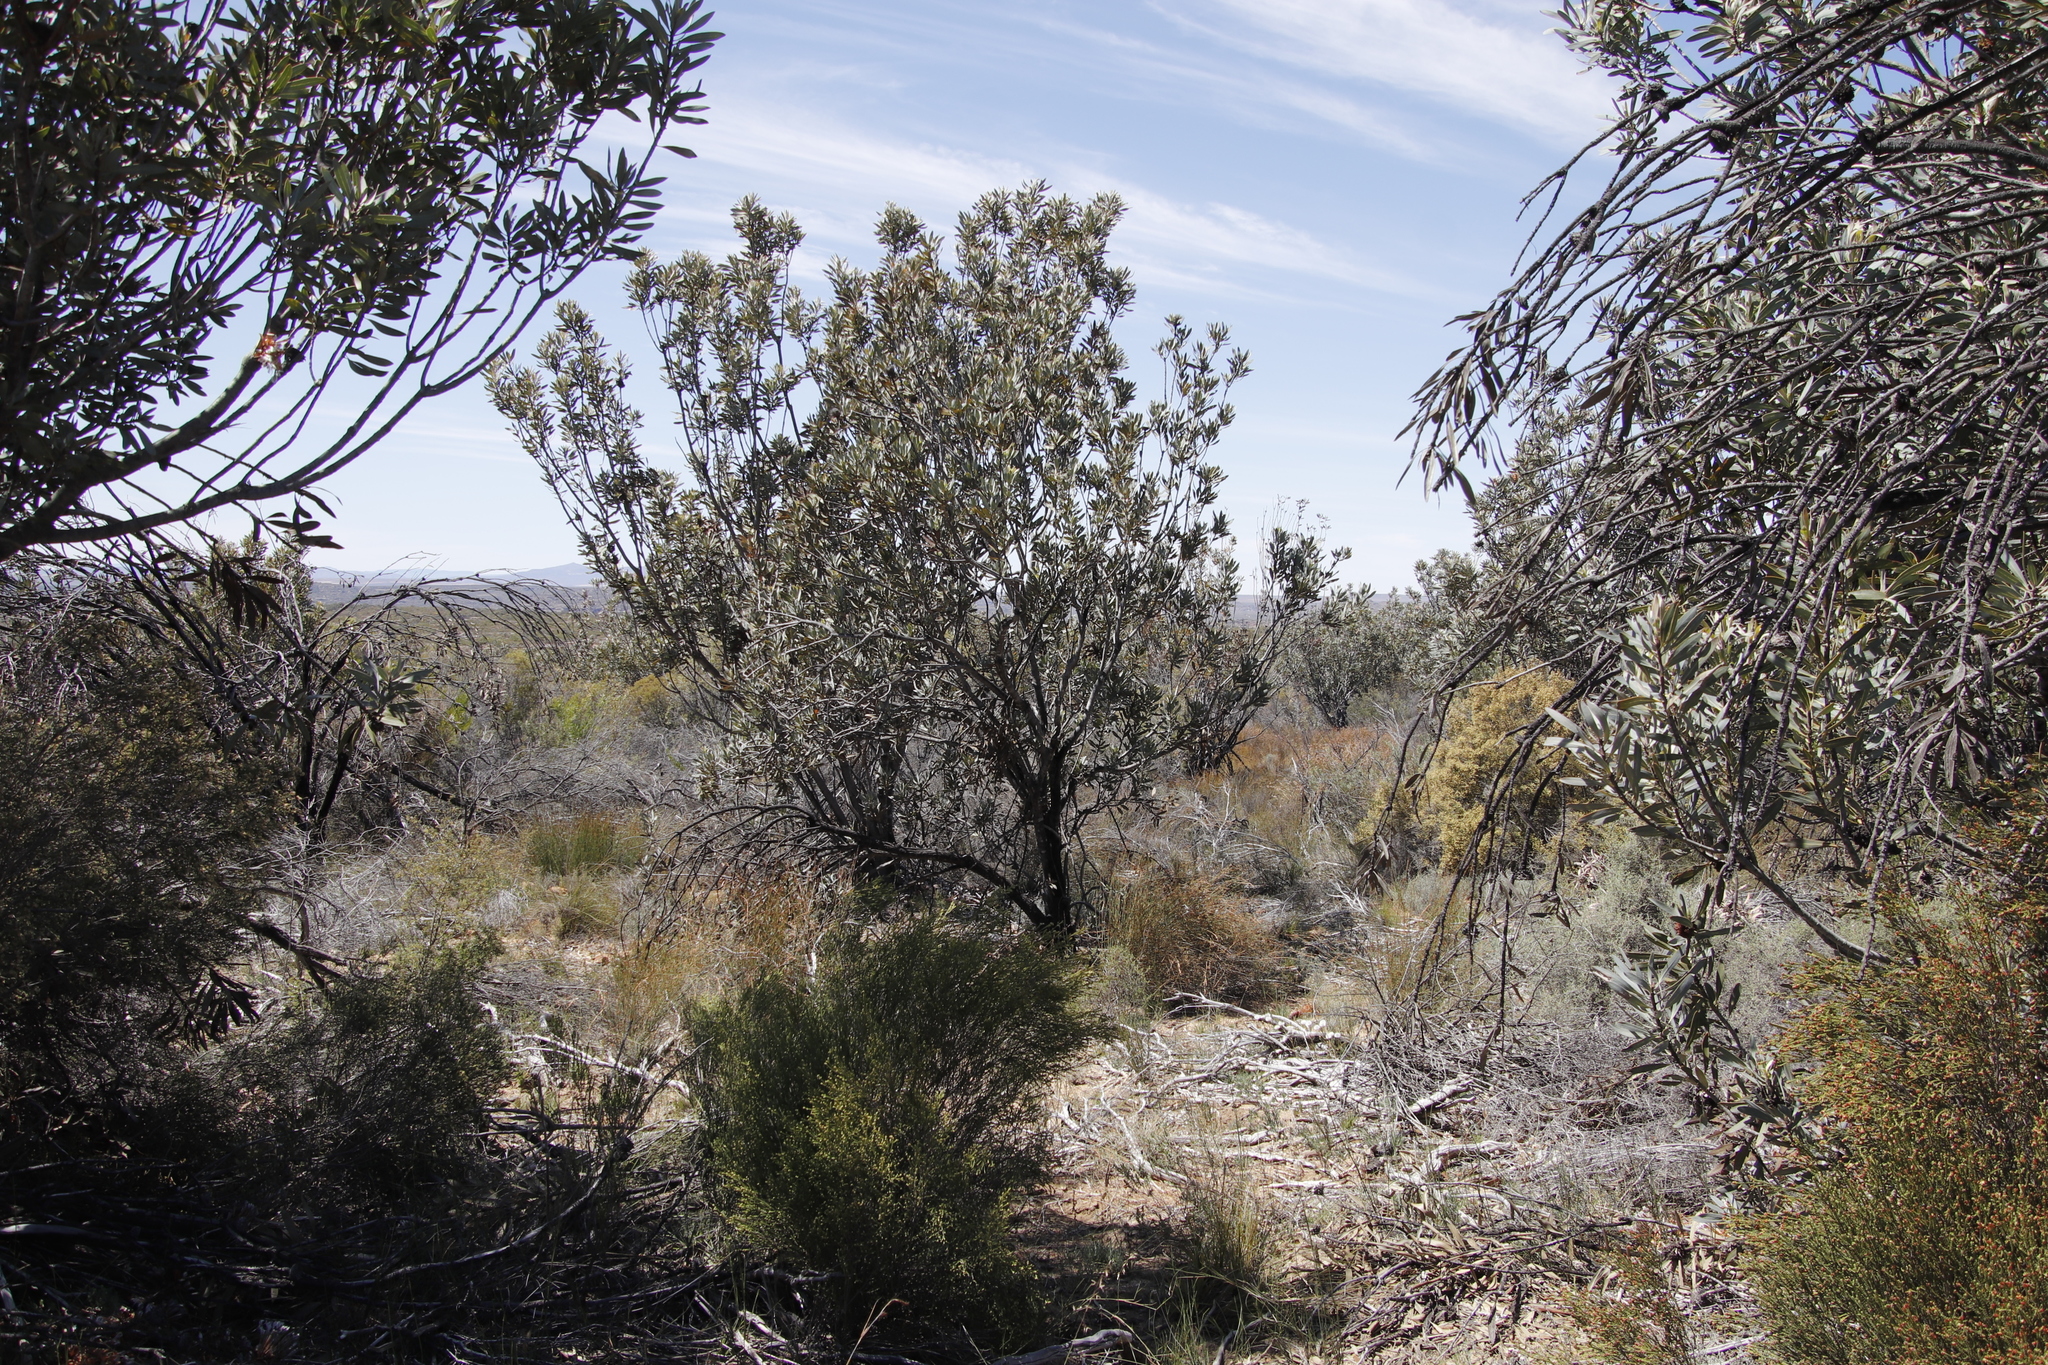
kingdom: Plantae
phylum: Tracheophyta
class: Magnoliopsida
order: Proteales
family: Proteaceae
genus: Protea
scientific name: Protea laurifolia
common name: Grey-leaf sugarbsh
